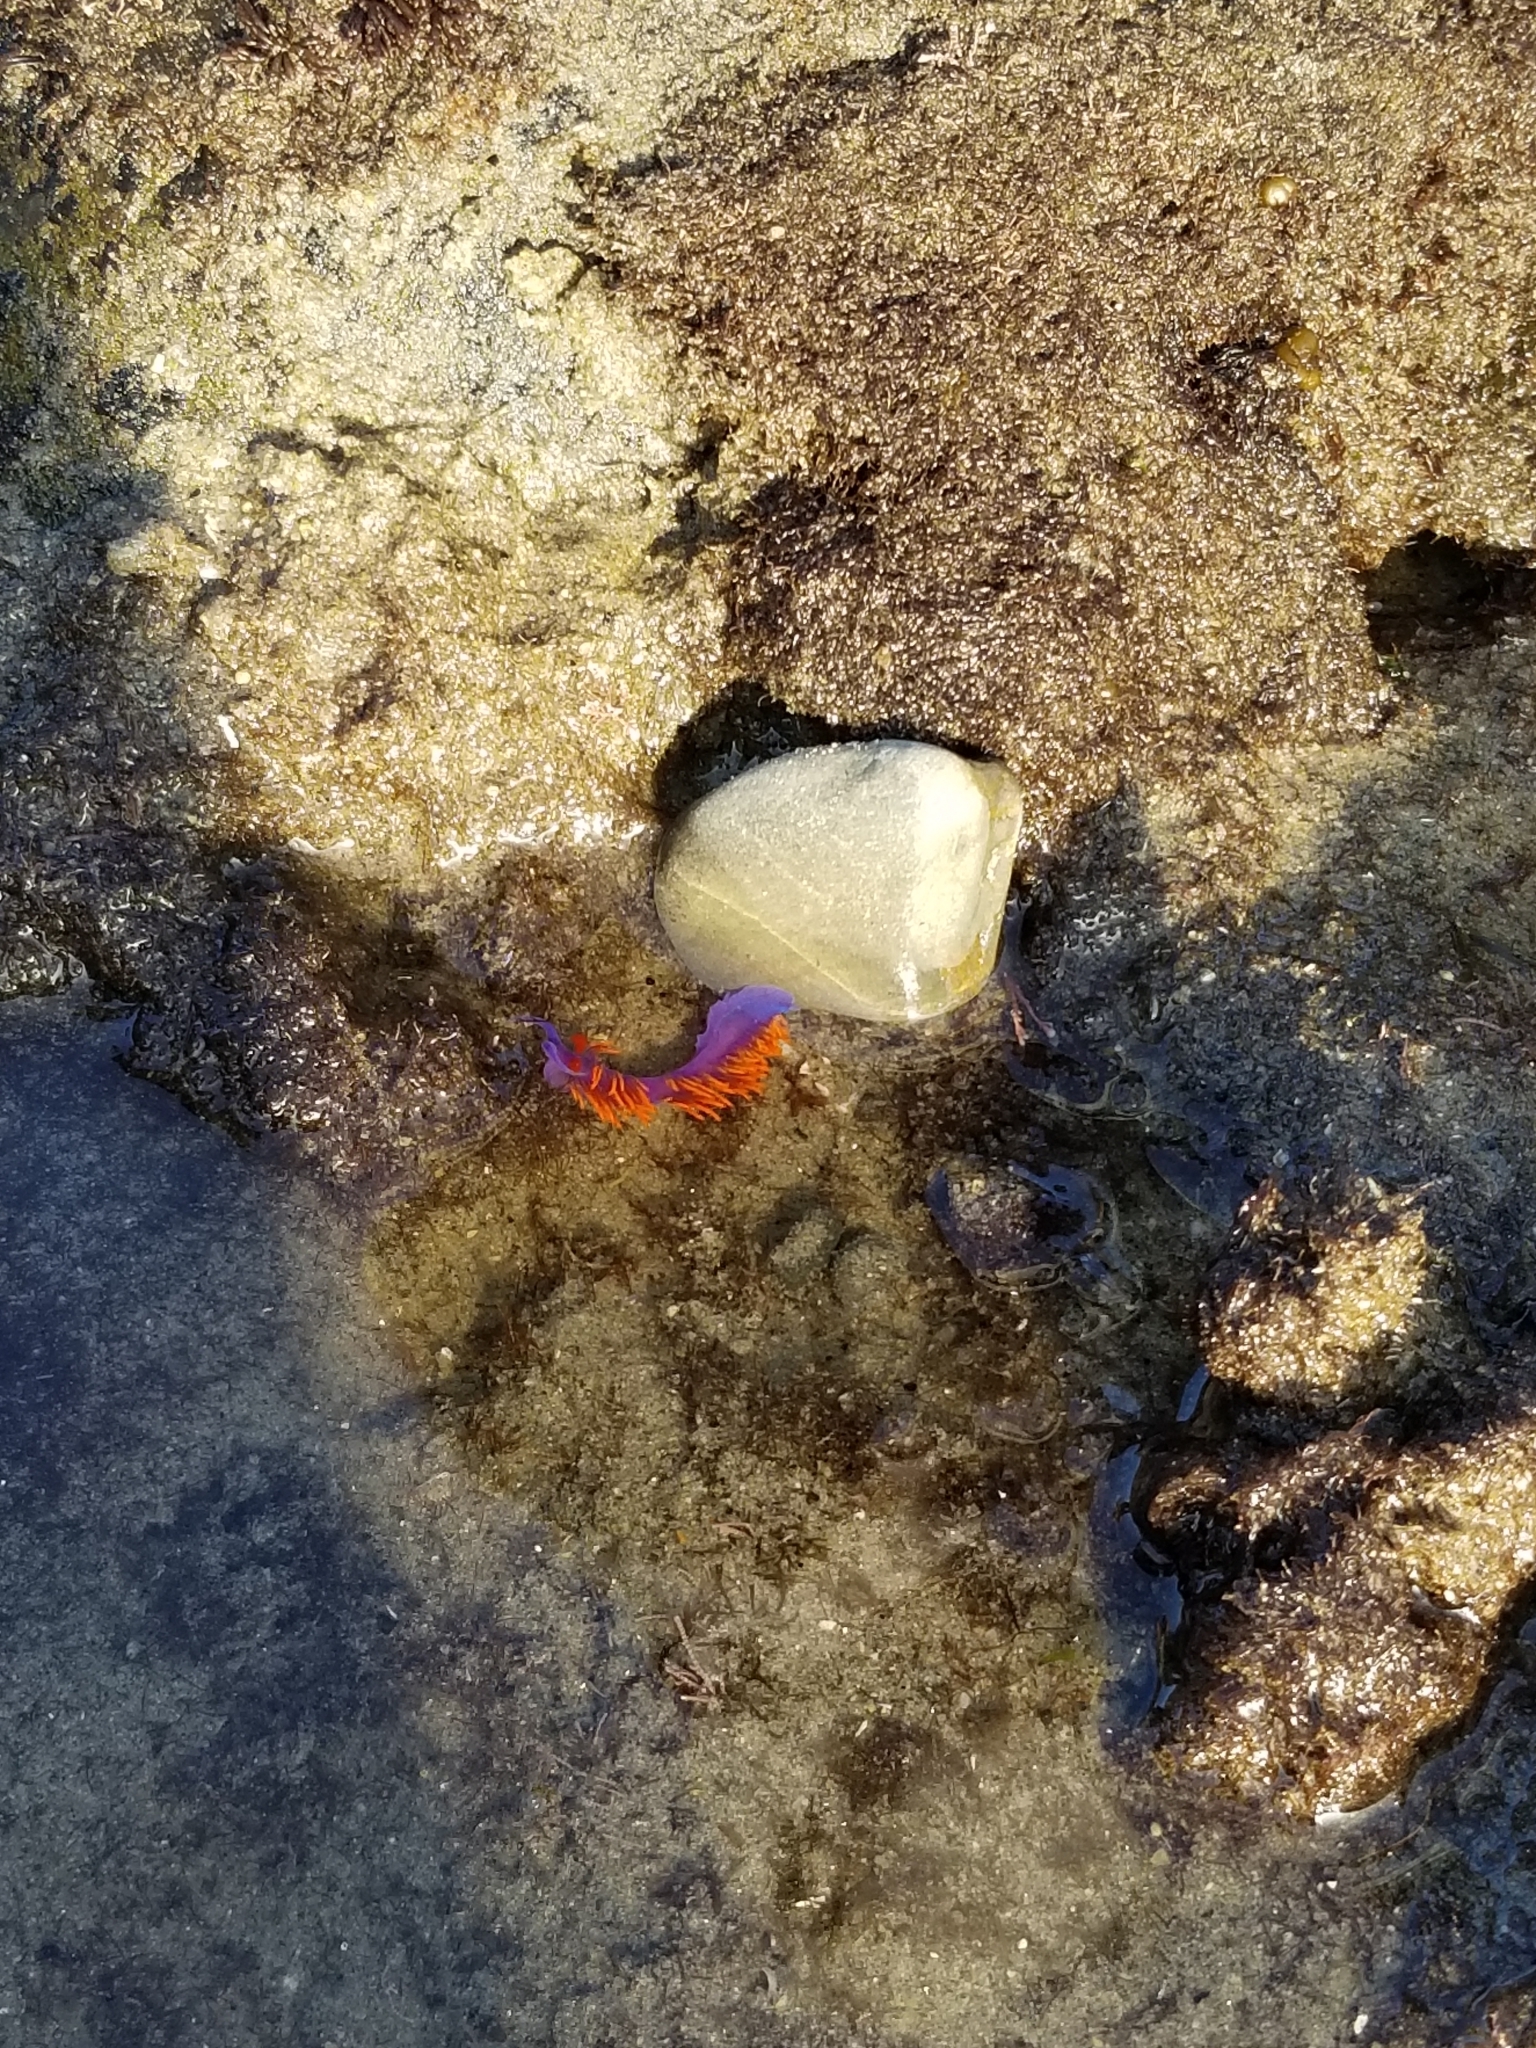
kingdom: Animalia
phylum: Mollusca
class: Gastropoda
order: Nudibranchia
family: Flabellinopsidae
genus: Flabellinopsis
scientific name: Flabellinopsis iodinea
